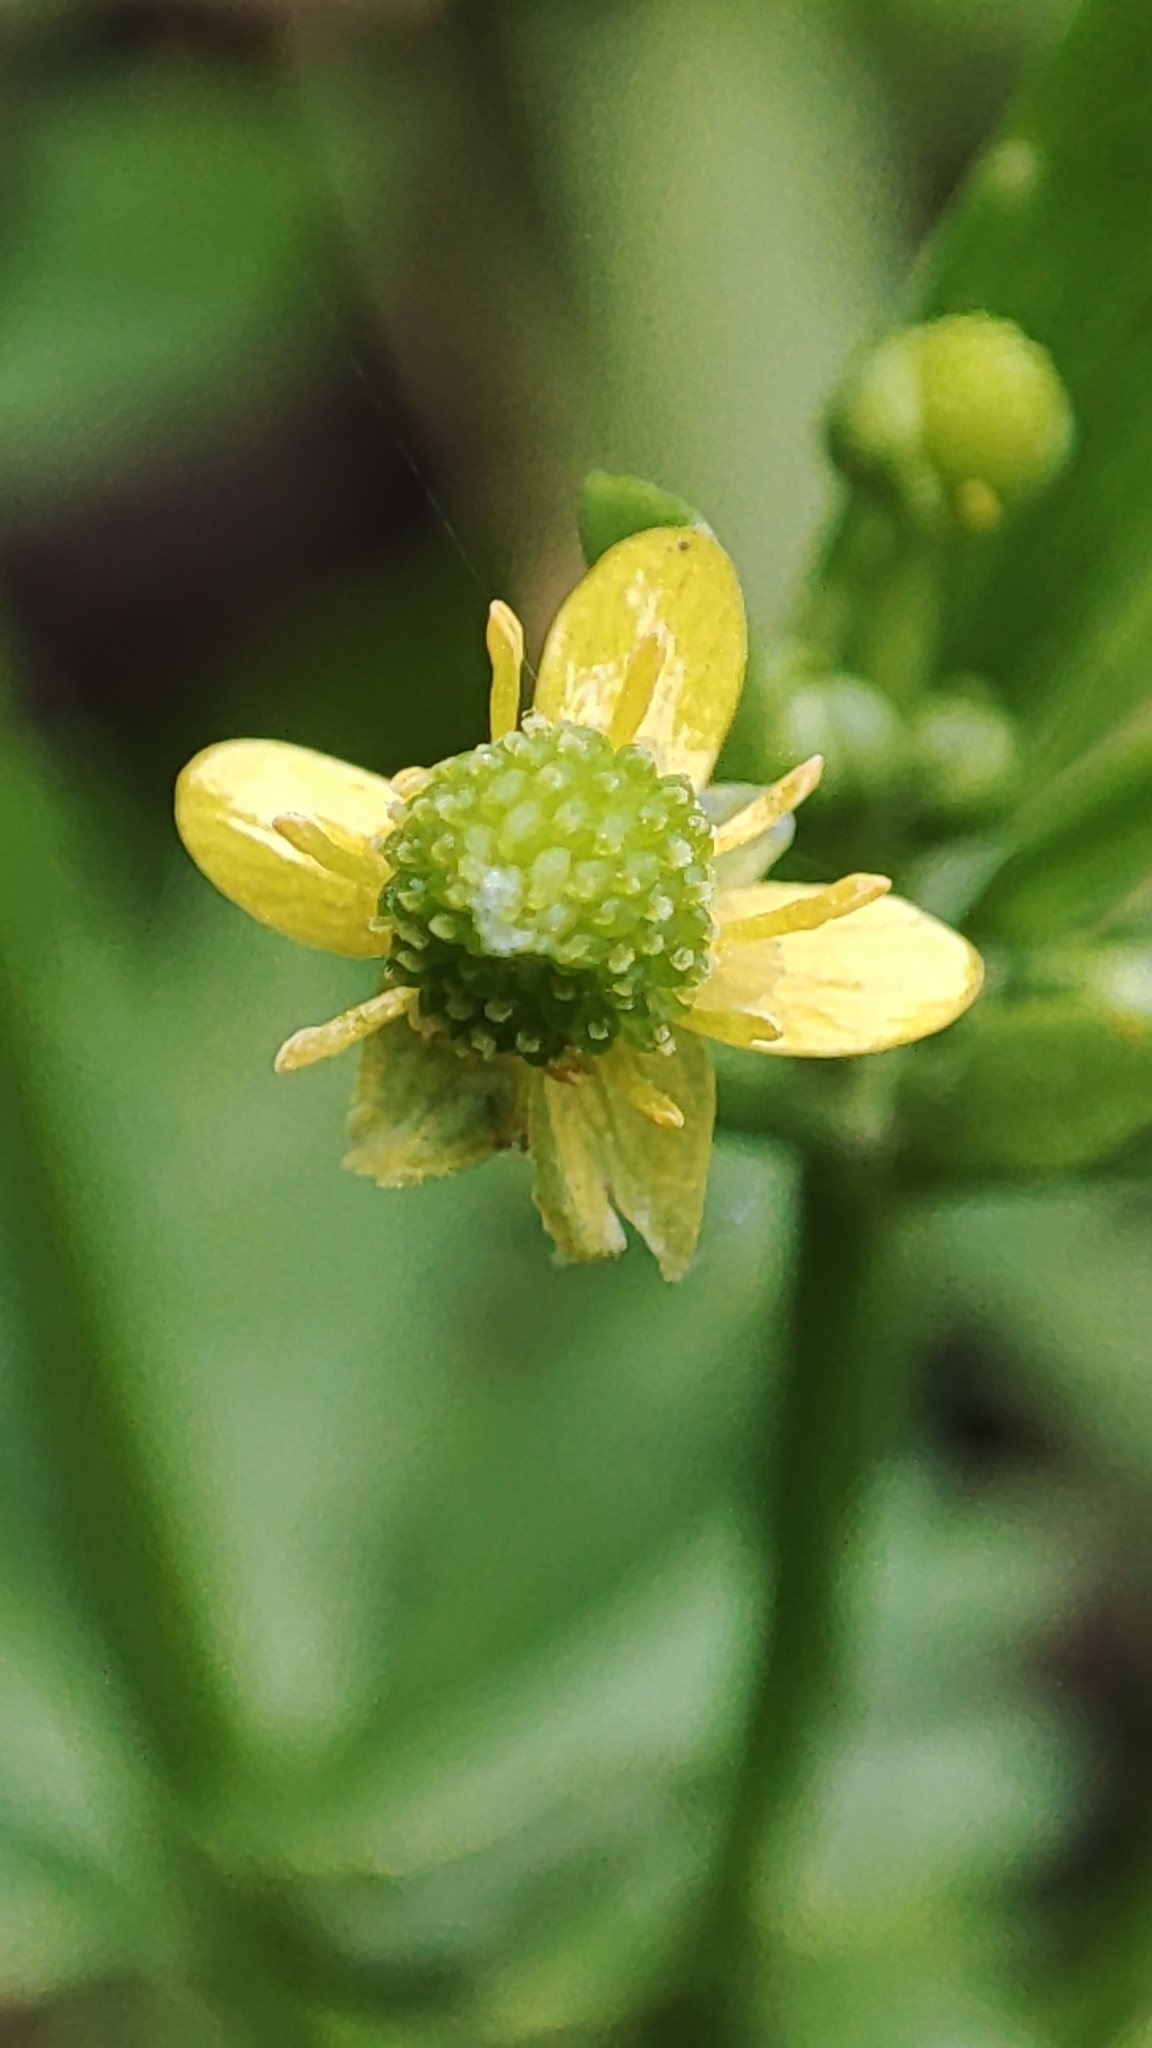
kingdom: Plantae
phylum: Tracheophyta
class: Magnoliopsida
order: Ranunculales
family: Ranunculaceae
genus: Ranunculus
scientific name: Ranunculus sceleratus
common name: Celery-leaved buttercup
